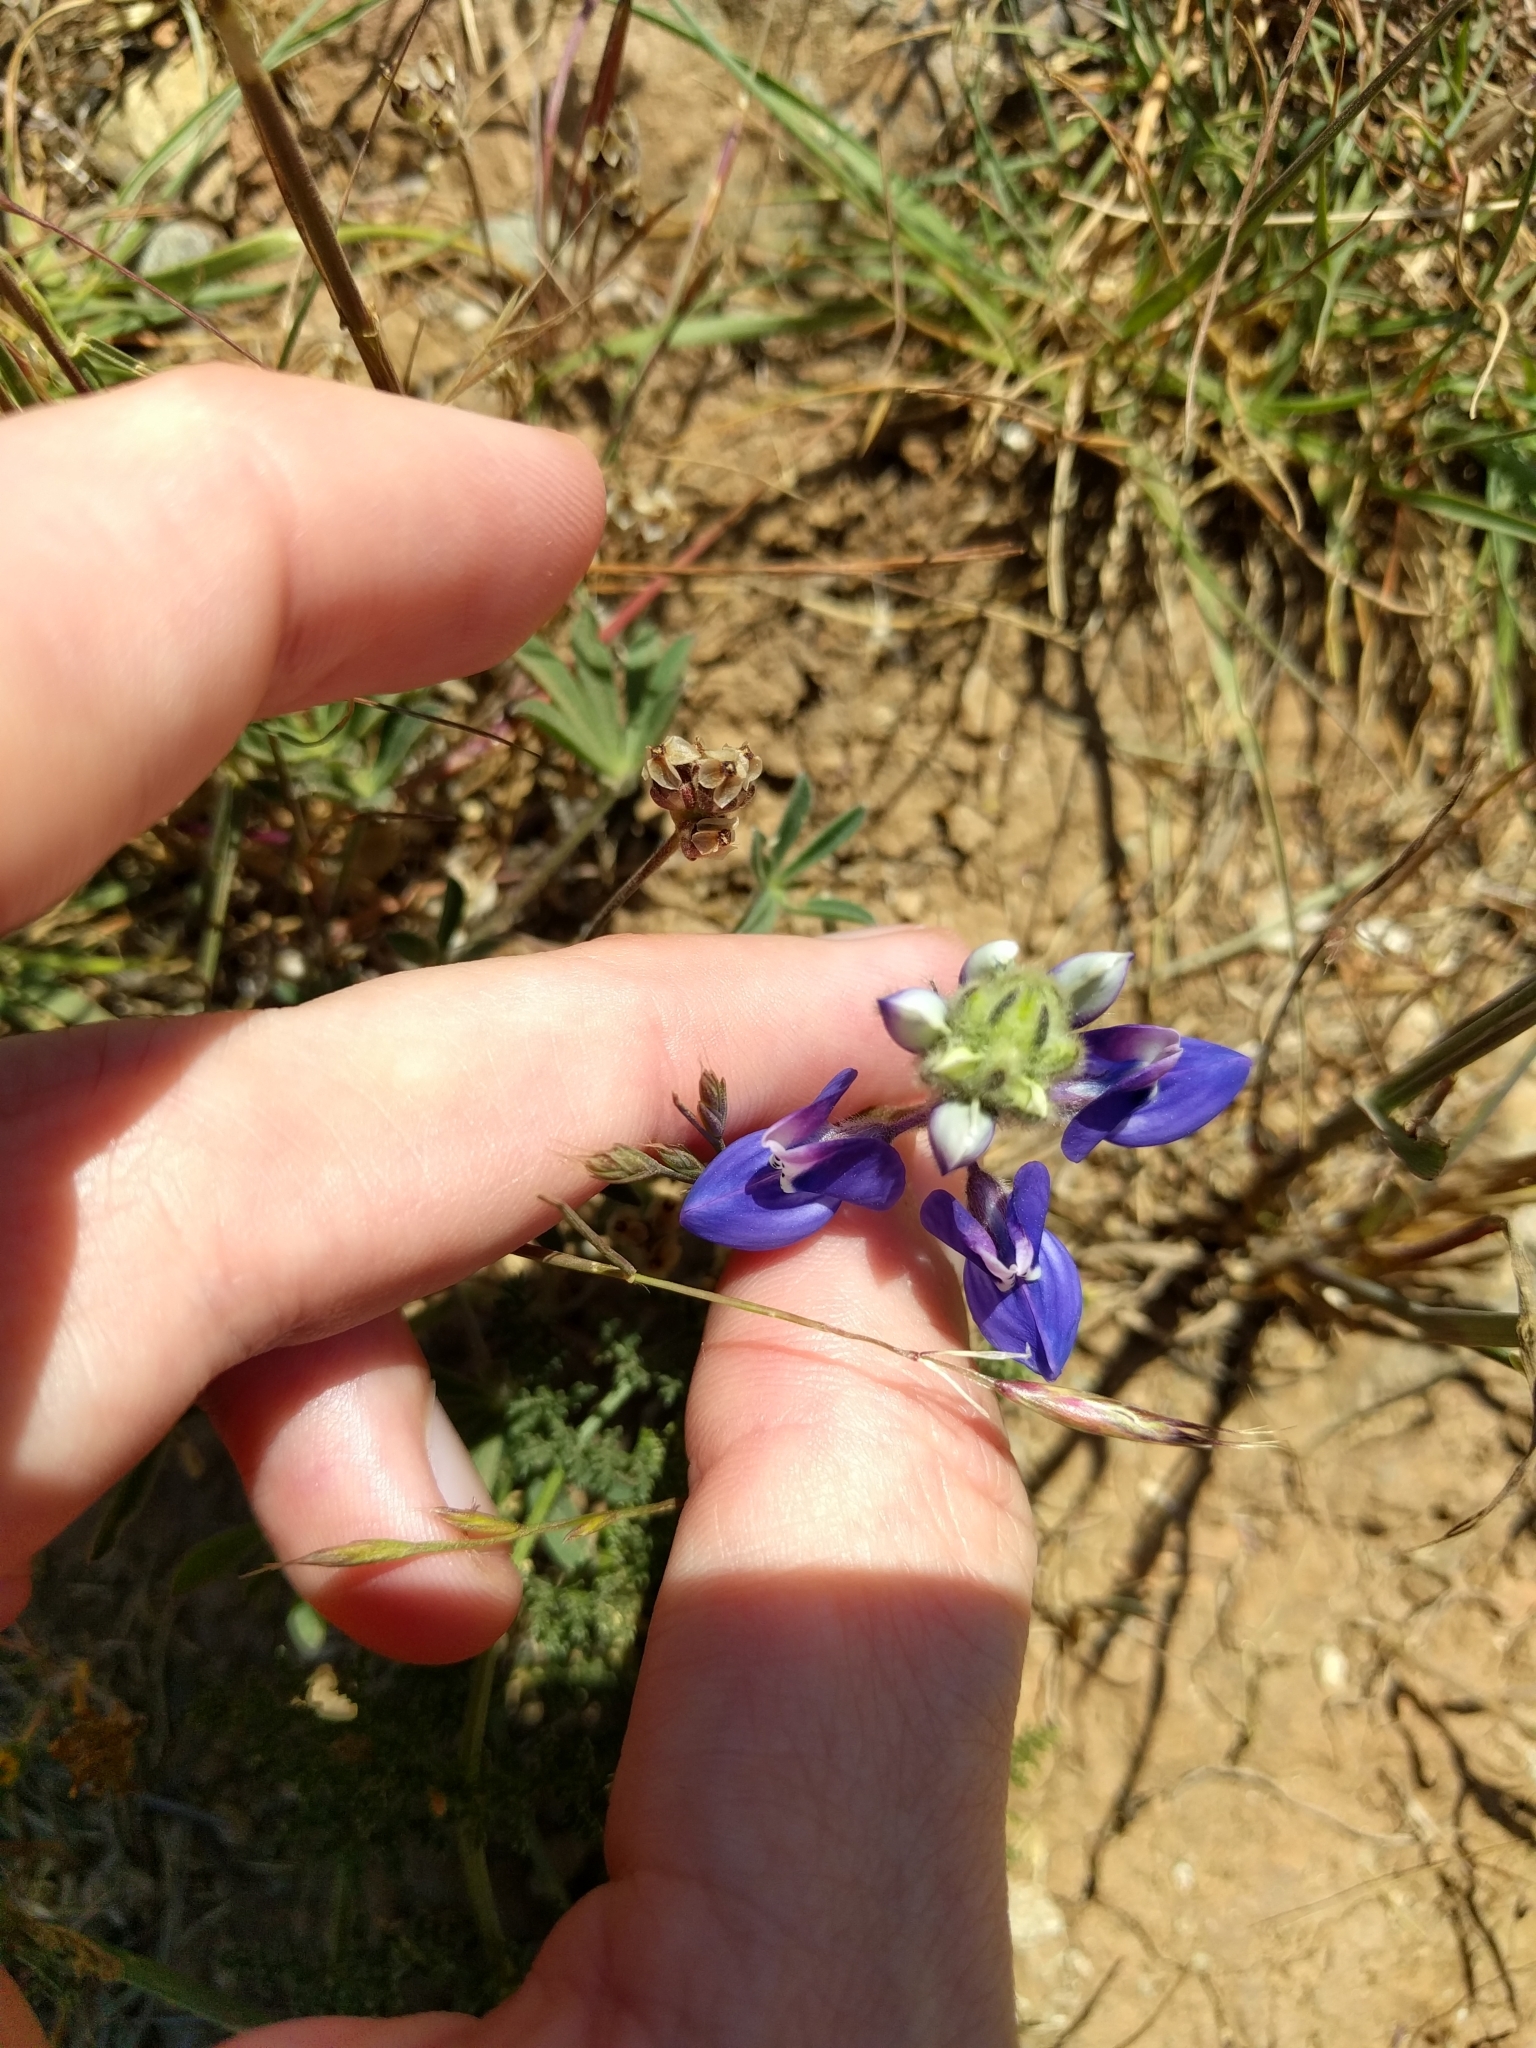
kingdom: Plantae
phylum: Tracheophyta
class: Magnoliopsida
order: Fabales
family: Fabaceae
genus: Lupinus
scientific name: Lupinus nanus
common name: Orean blue lupin
